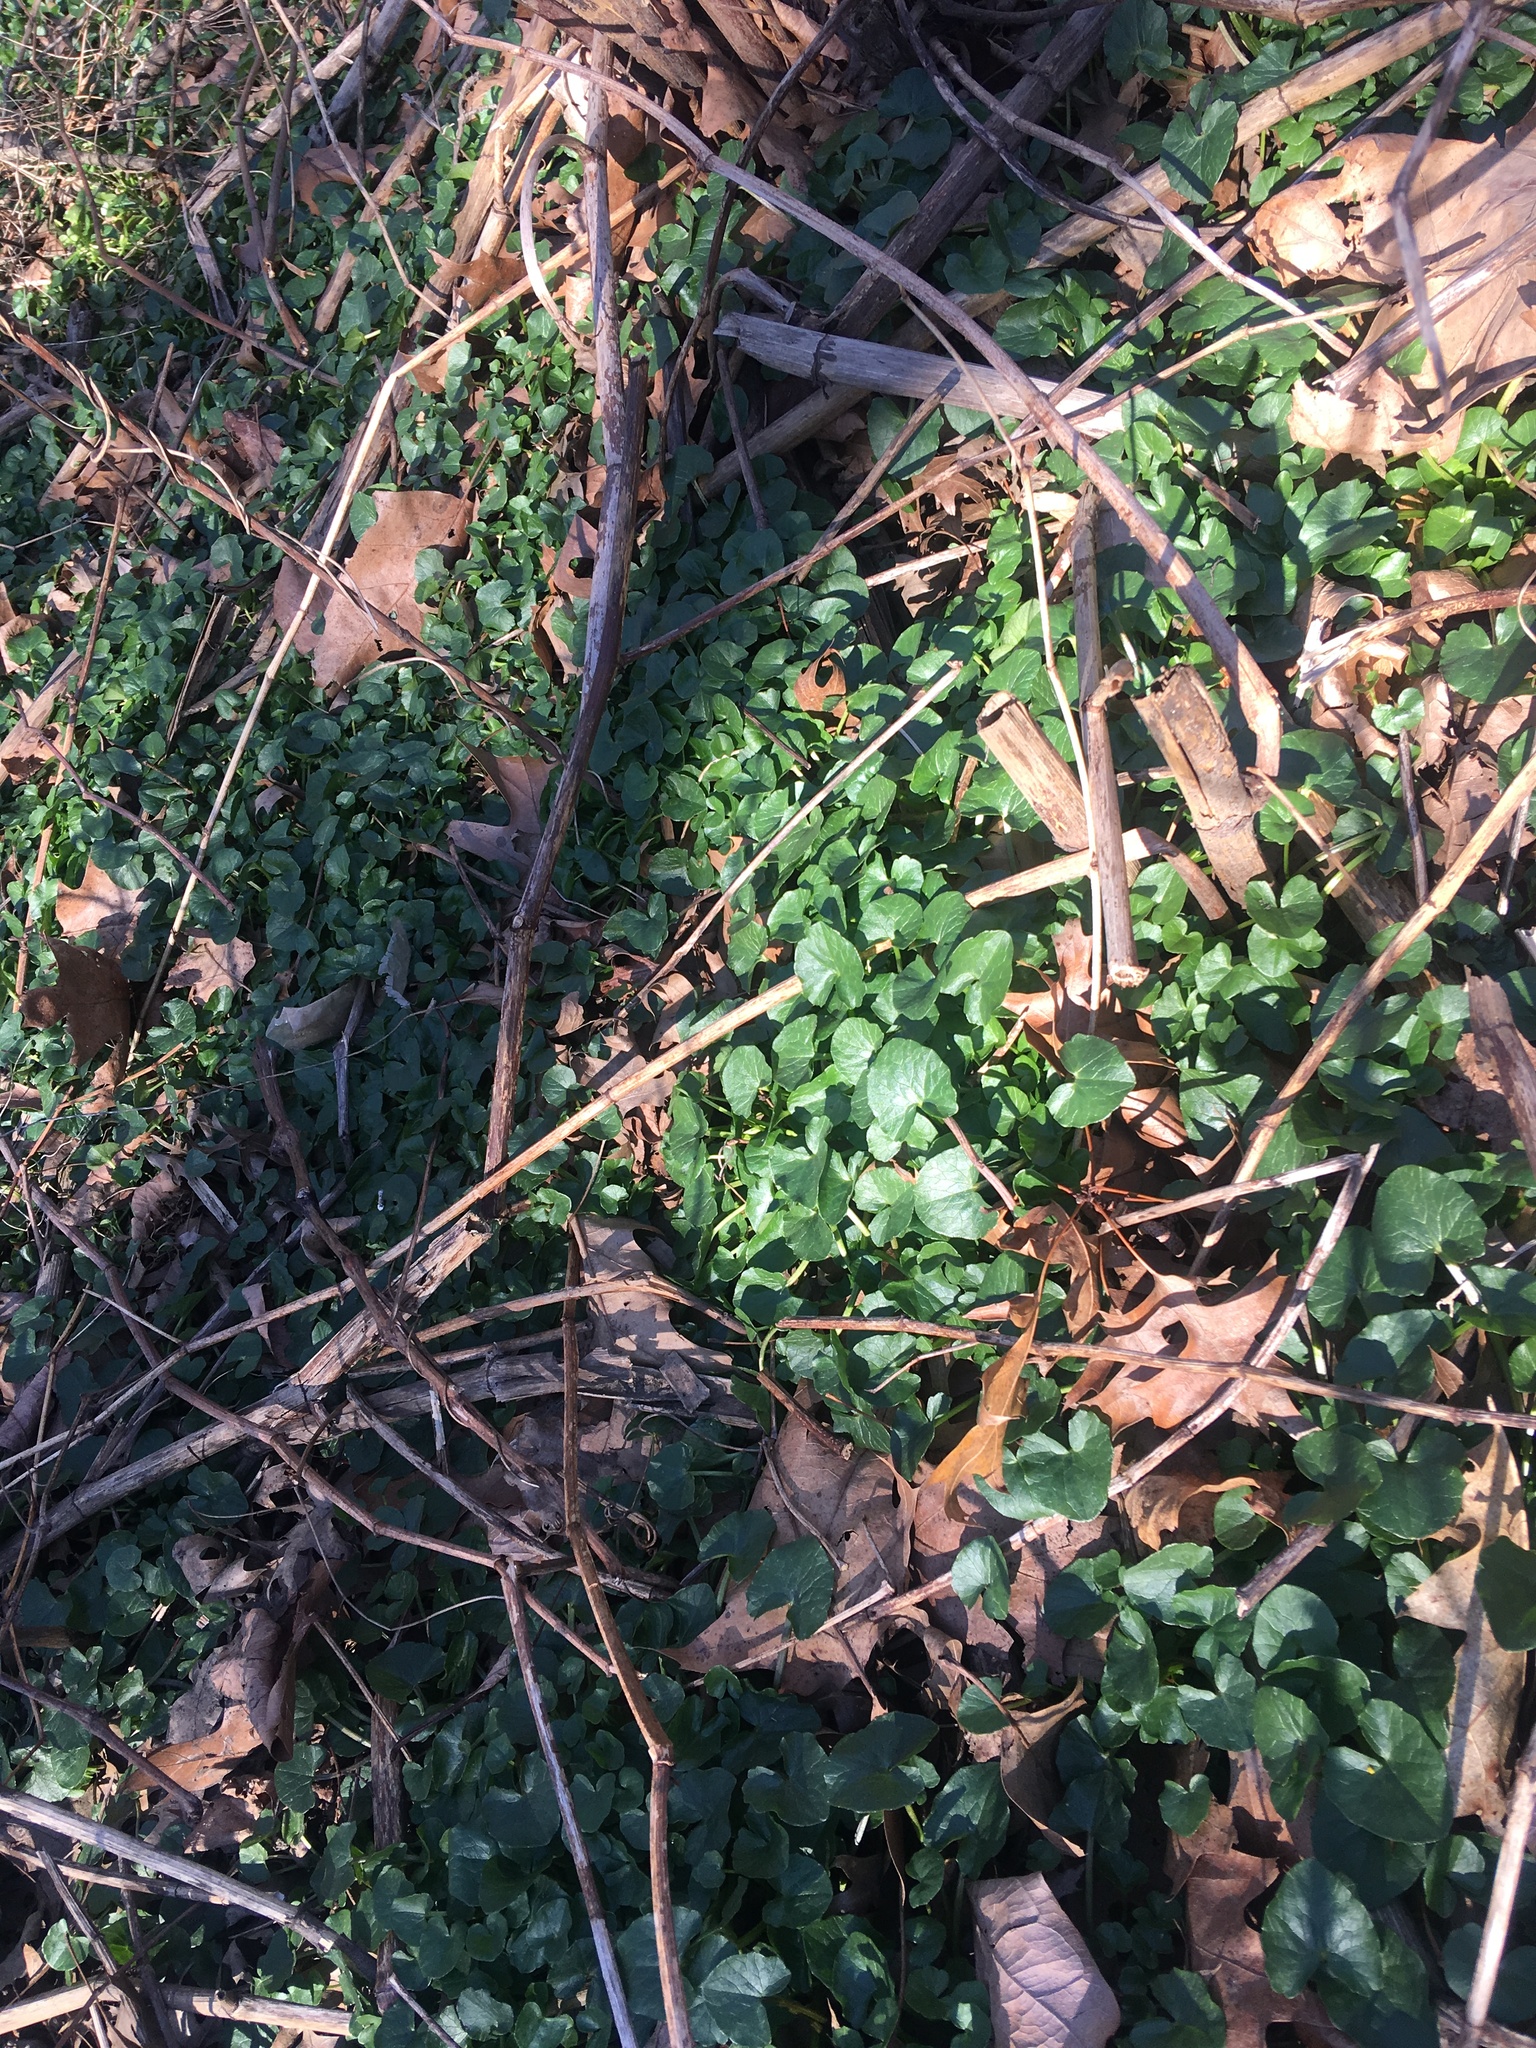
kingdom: Plantae
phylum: Tracheophyta
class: Magnoliopsida
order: Ranunculales
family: Ranunculaceae
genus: Ficaria
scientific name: Ficaria verna
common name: Lesser celandine
